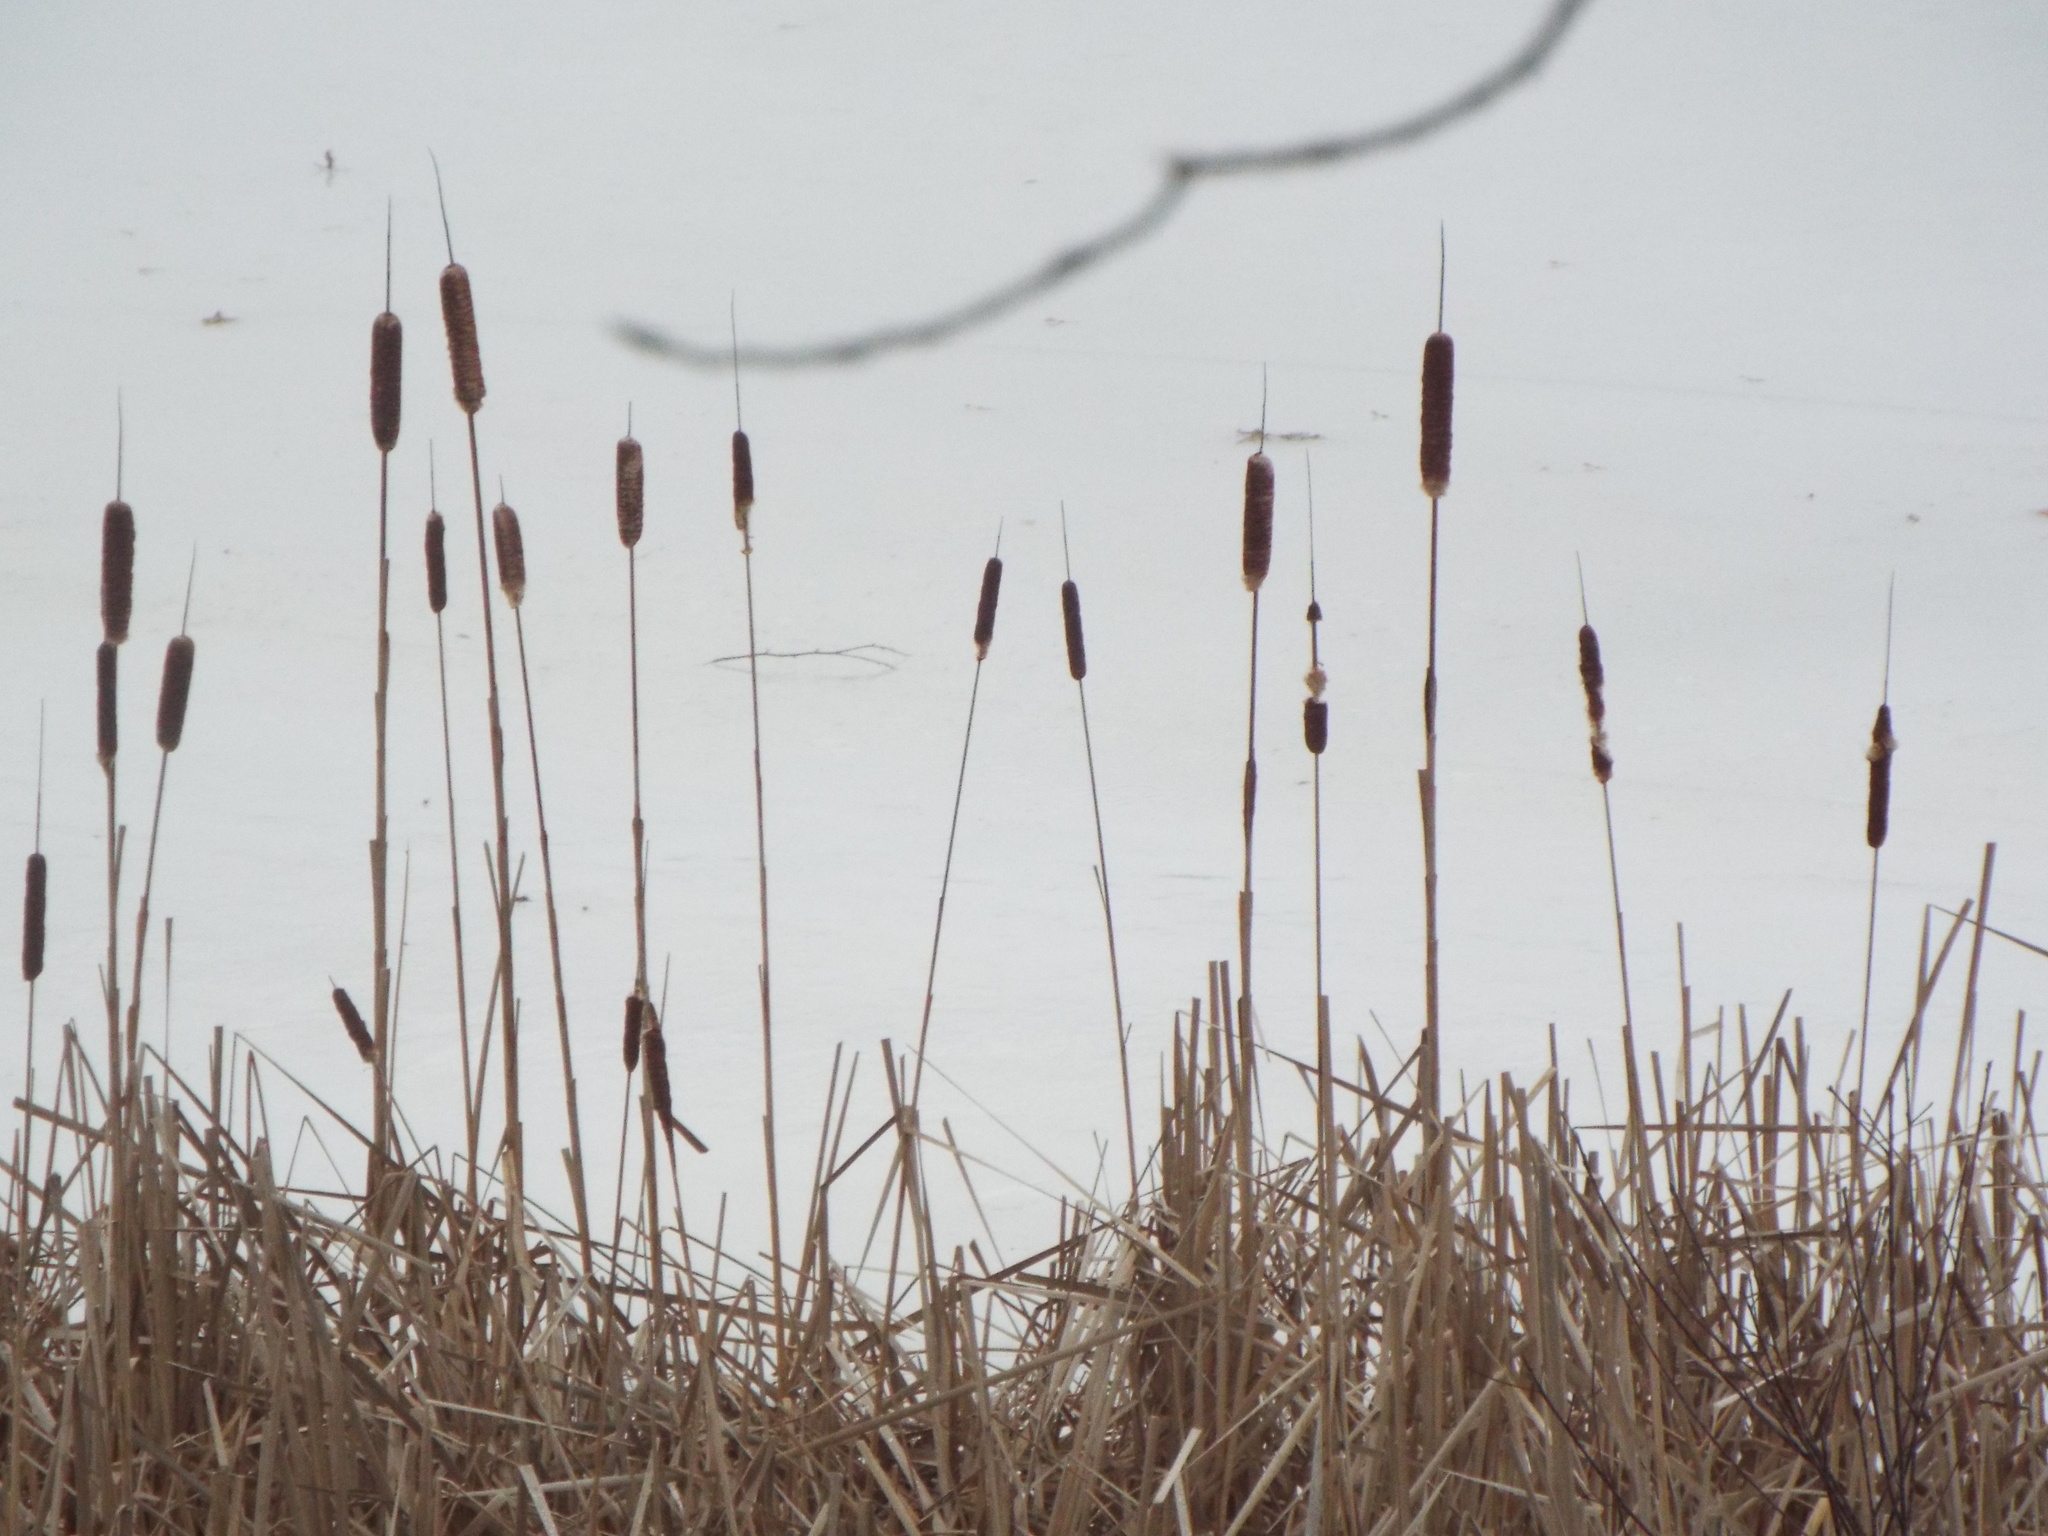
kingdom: Plantae
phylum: Tracheophyta
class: Liliopsida
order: Poales
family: Typhaceae
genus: Typha
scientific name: Typha
